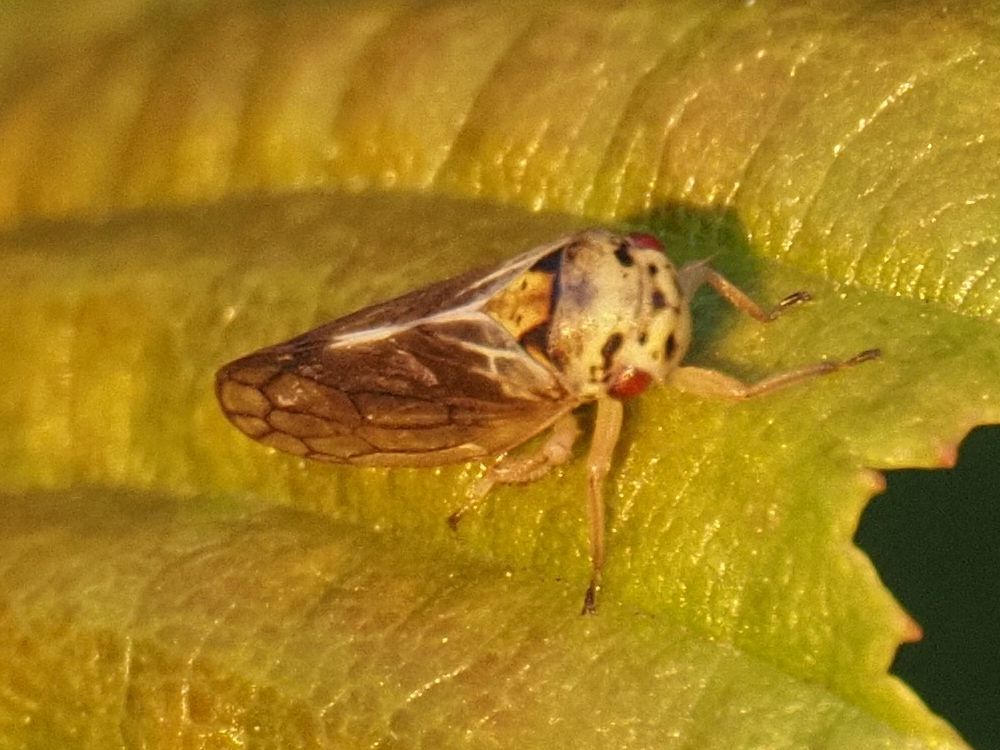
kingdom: Animalia
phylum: Arthropoda
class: Insecta
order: Hemiptera
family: Cicadellidae
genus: Oncopsis
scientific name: Oncopsis carpini
